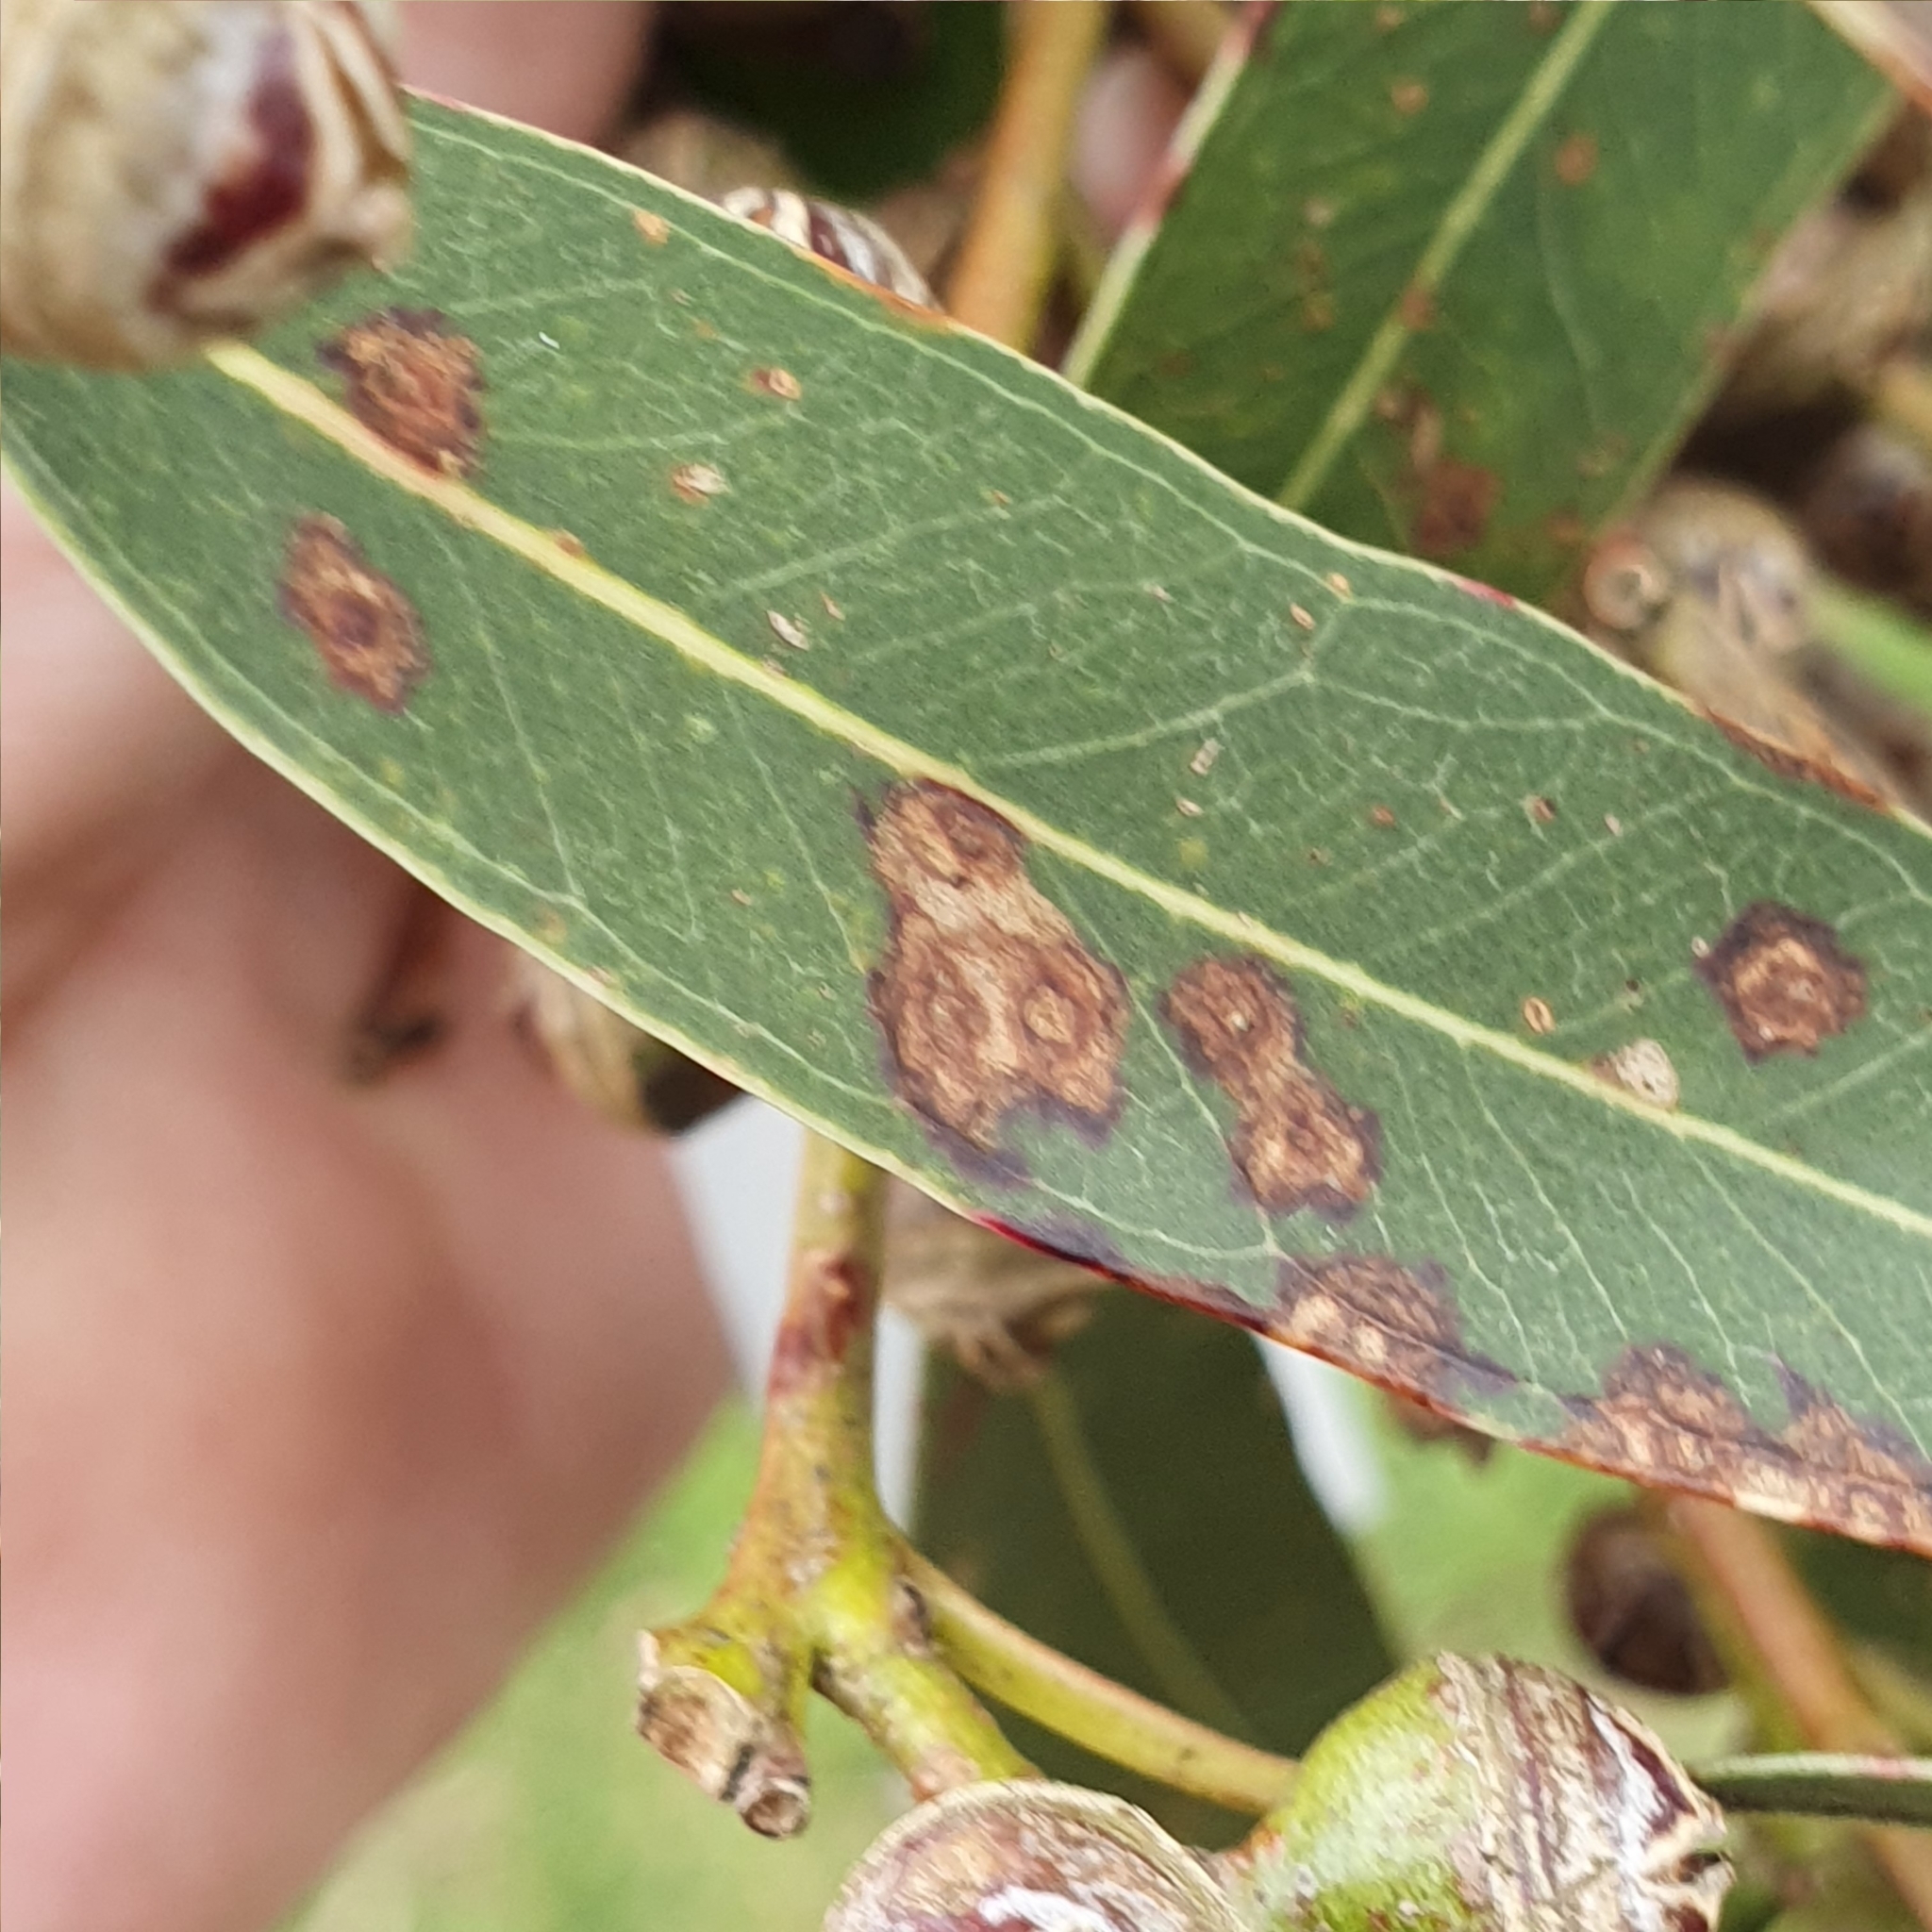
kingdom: Plantae
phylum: Tracheophyta
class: Magnoliopsida
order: Myrtales
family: Myrtaceae
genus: Eucalyptus
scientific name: Eucalyptus camaldulensis
